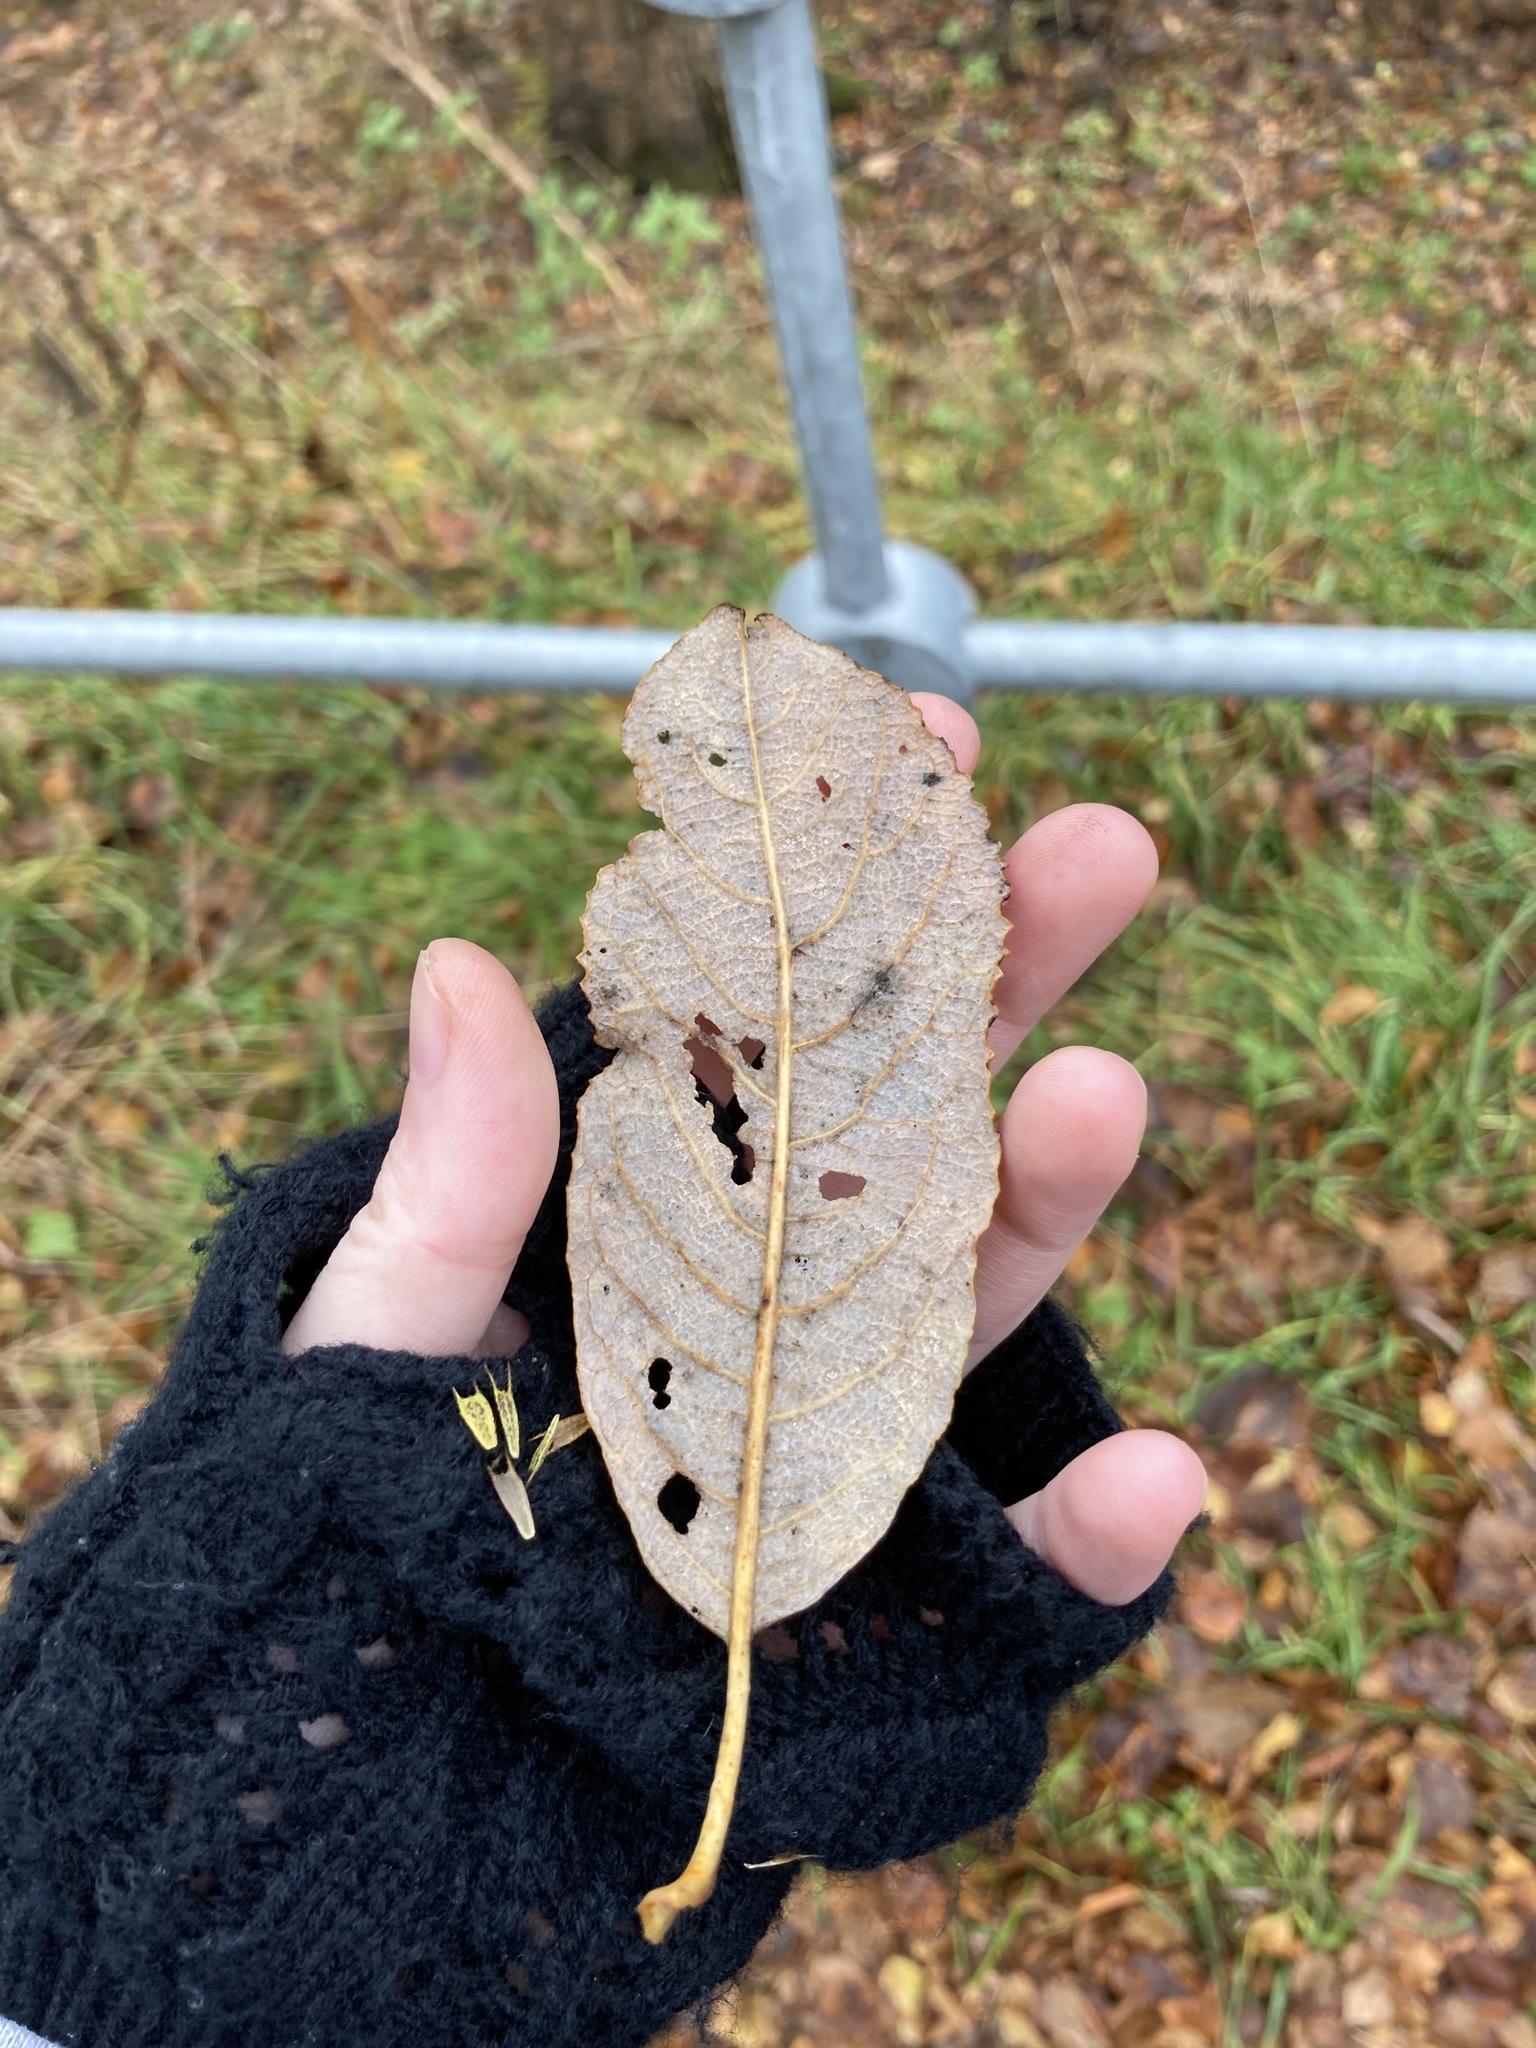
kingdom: Plantae
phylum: Tracheophyta
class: Magnoliopsida
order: Malpighiales
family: Salicaceae
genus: Salix
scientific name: Salix caprea
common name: Goat willow
